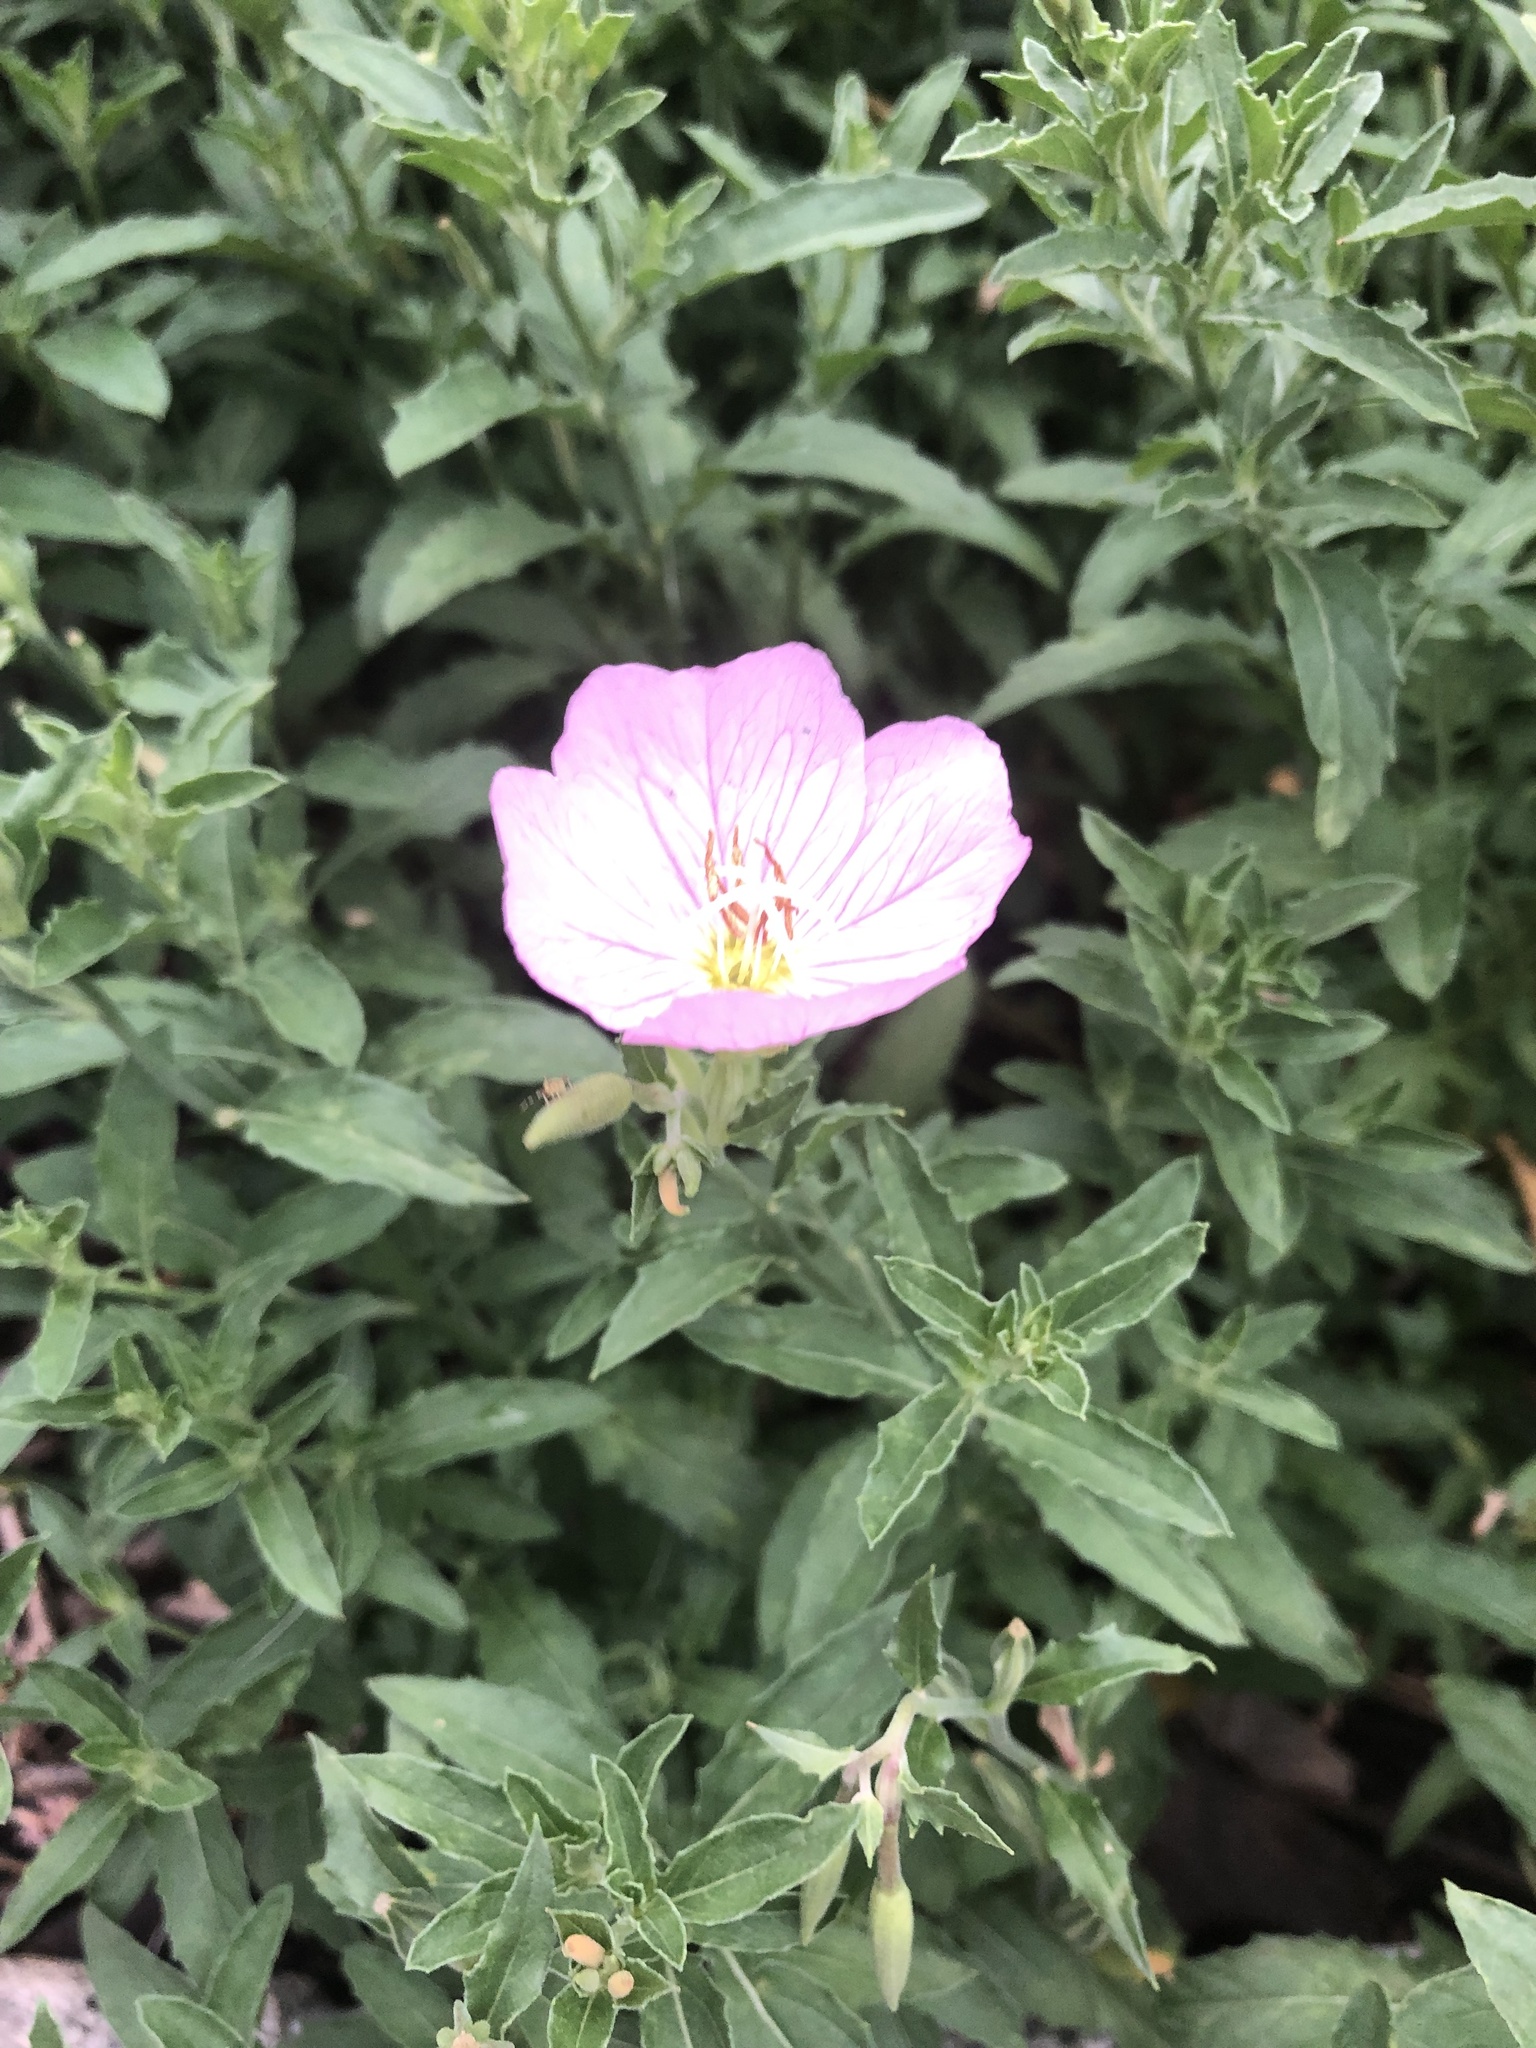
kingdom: Plantae
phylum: Tracheophyta
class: Magnoliopsida
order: Myrtales
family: Onagraceae
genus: Oenothera
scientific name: Oenothera speciosa
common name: White evening-primrose
